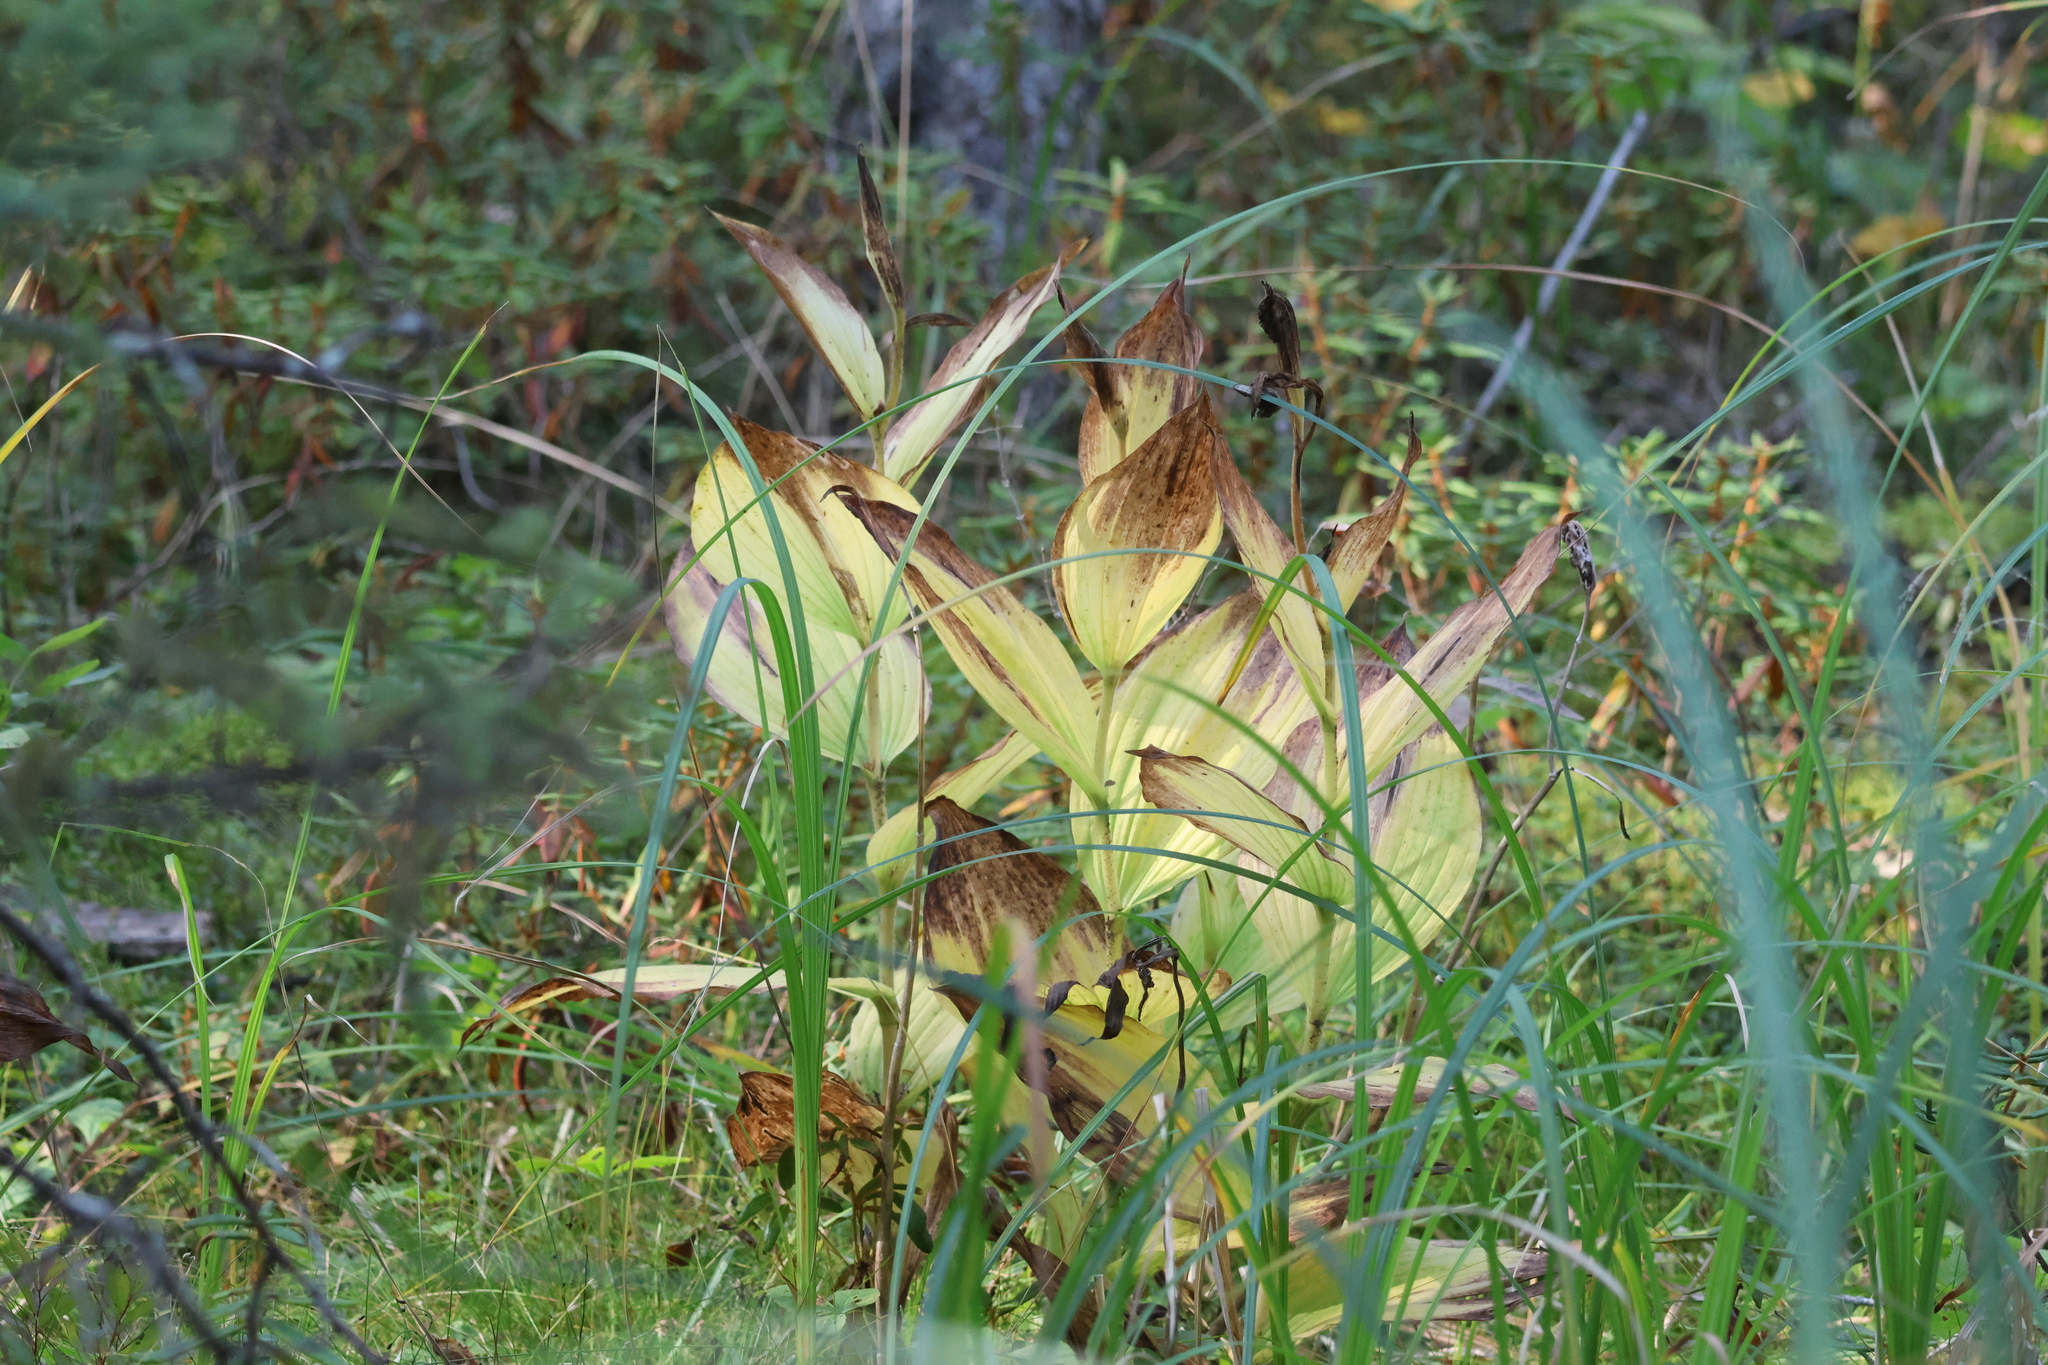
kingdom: Plantae
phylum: Tracheophyta
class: Liliopsida
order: Asparagales
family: Orchidaceae
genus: Cypripedium
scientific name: Cypripedium reginae
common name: Queen lady's-slipper
